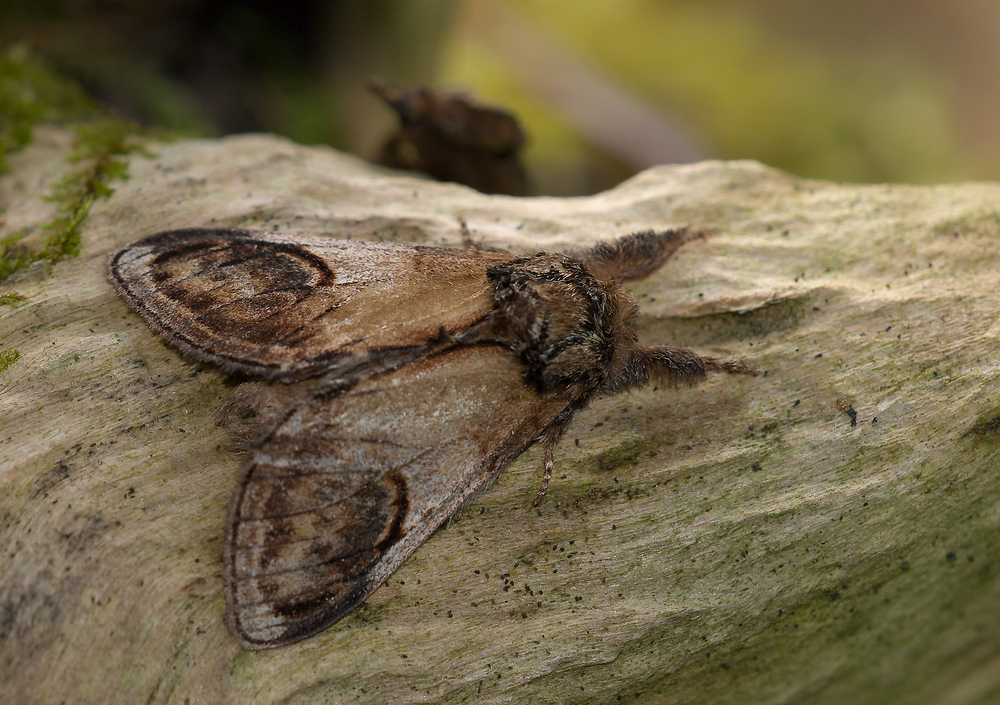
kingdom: Animalia
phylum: Arthropoda
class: Insecta
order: Lepidoptera
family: Notodontidae
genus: Notodonta
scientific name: Notodonta ziczac
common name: Pebble prominent
